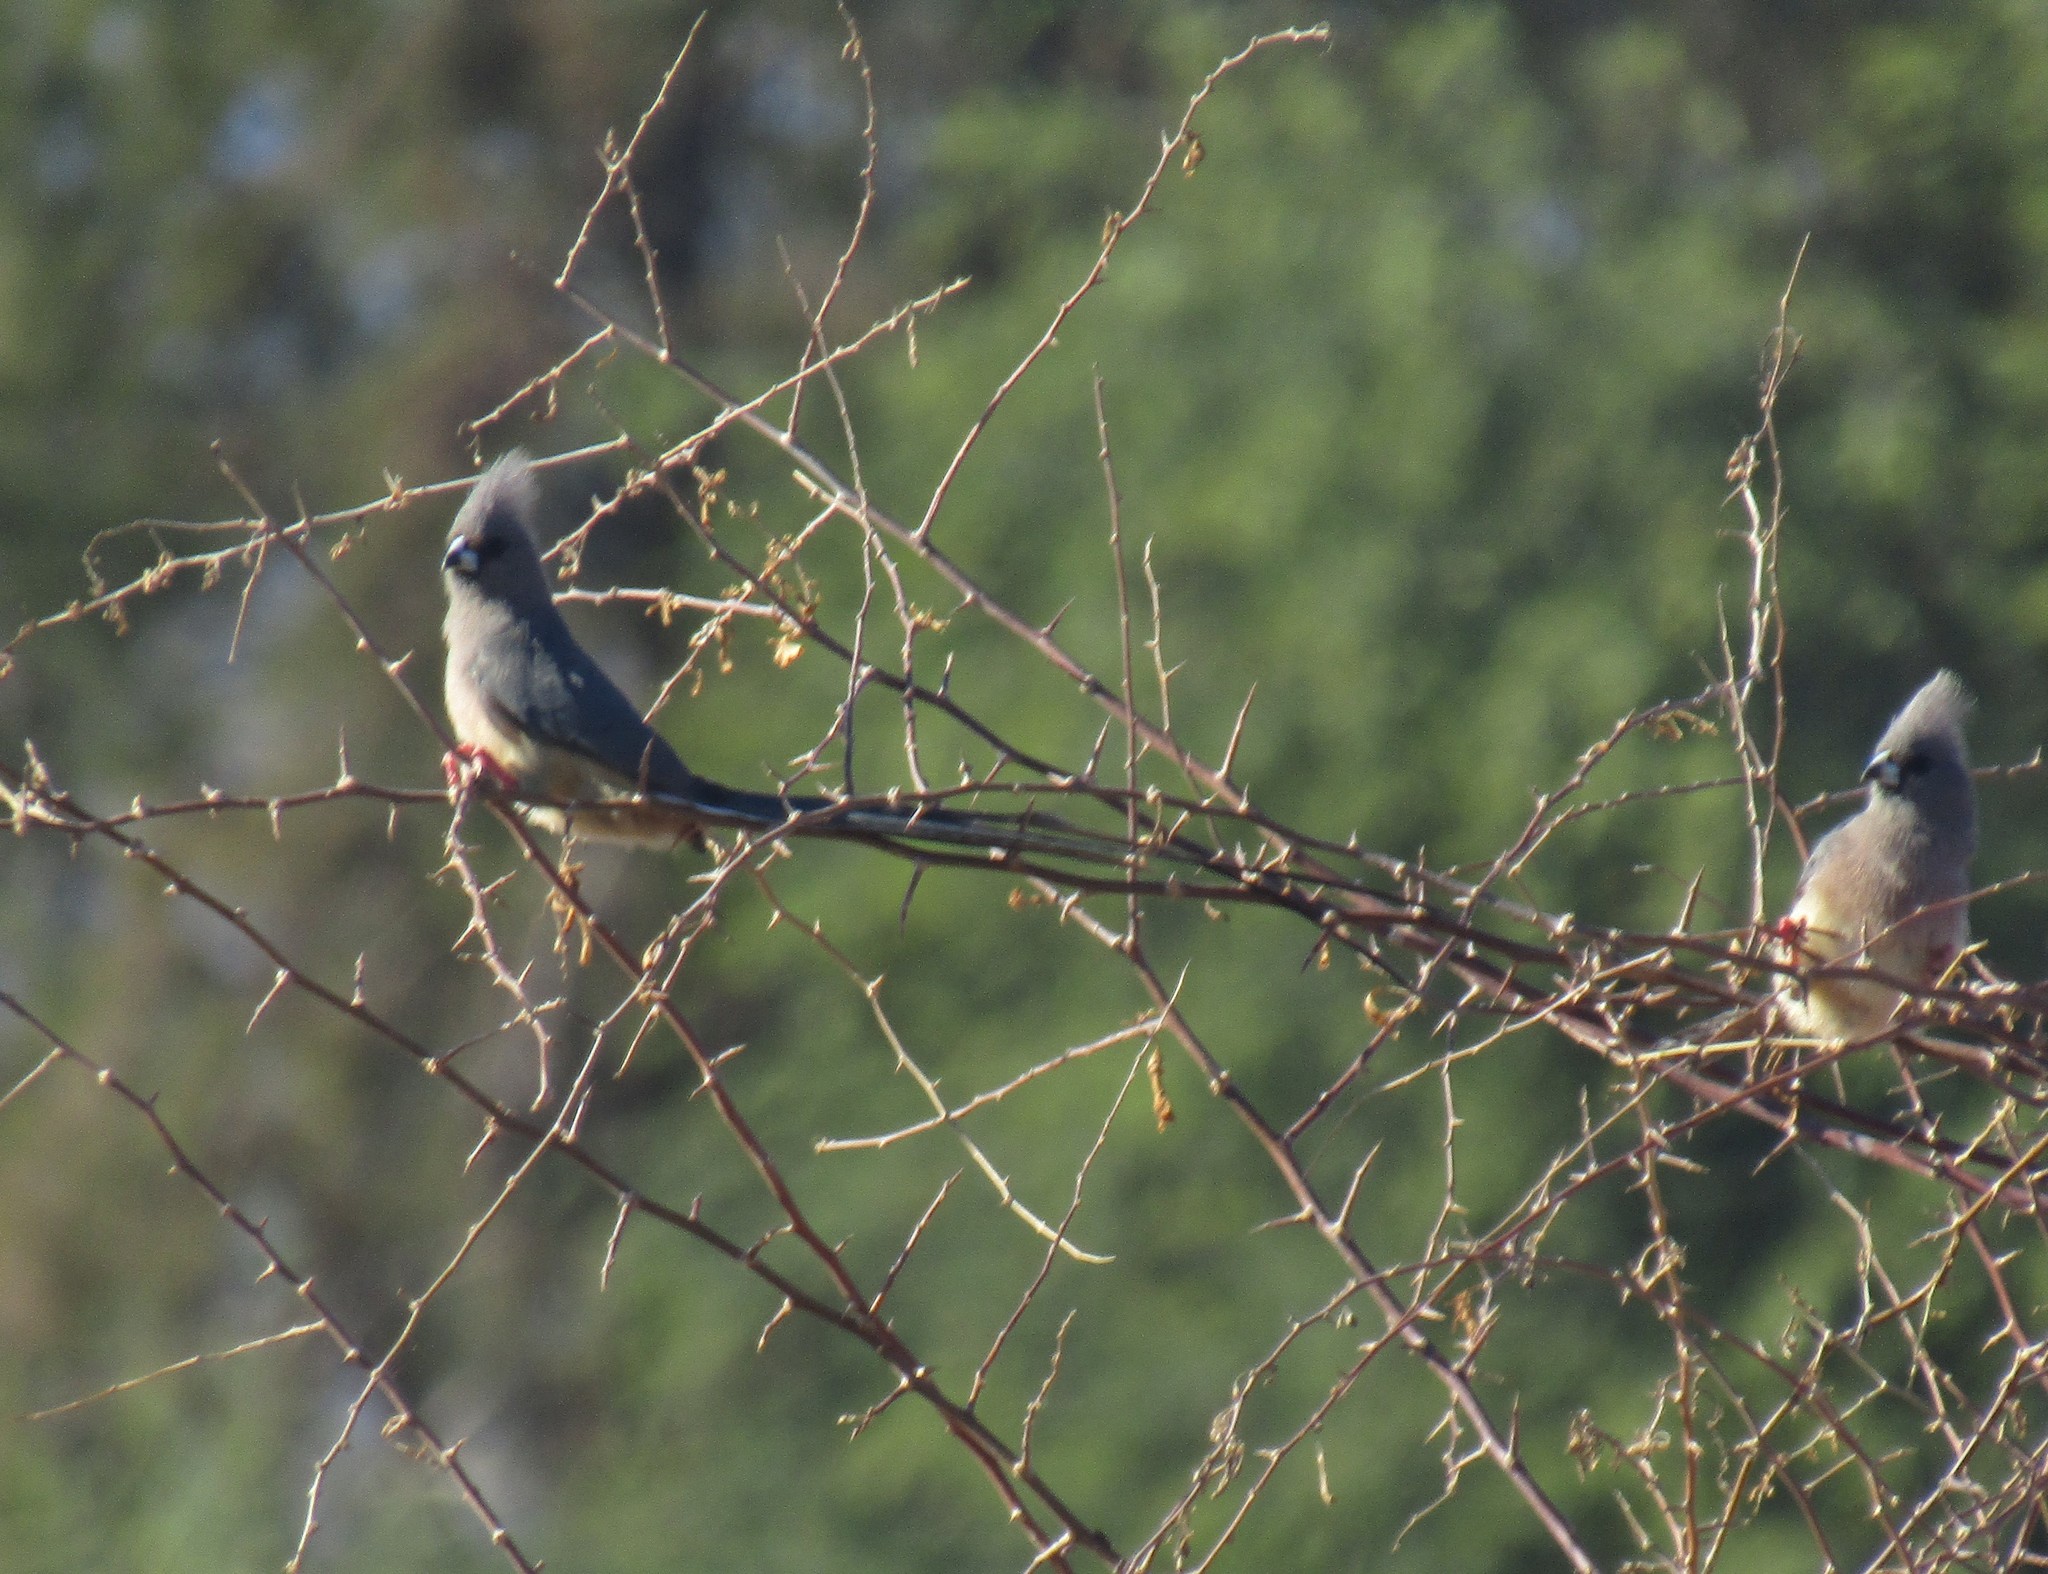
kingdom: Animalia
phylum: Chordata
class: Aves
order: Coliiformes
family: Coliidae
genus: Colius
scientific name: Colius colius
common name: White-backed mousebird
